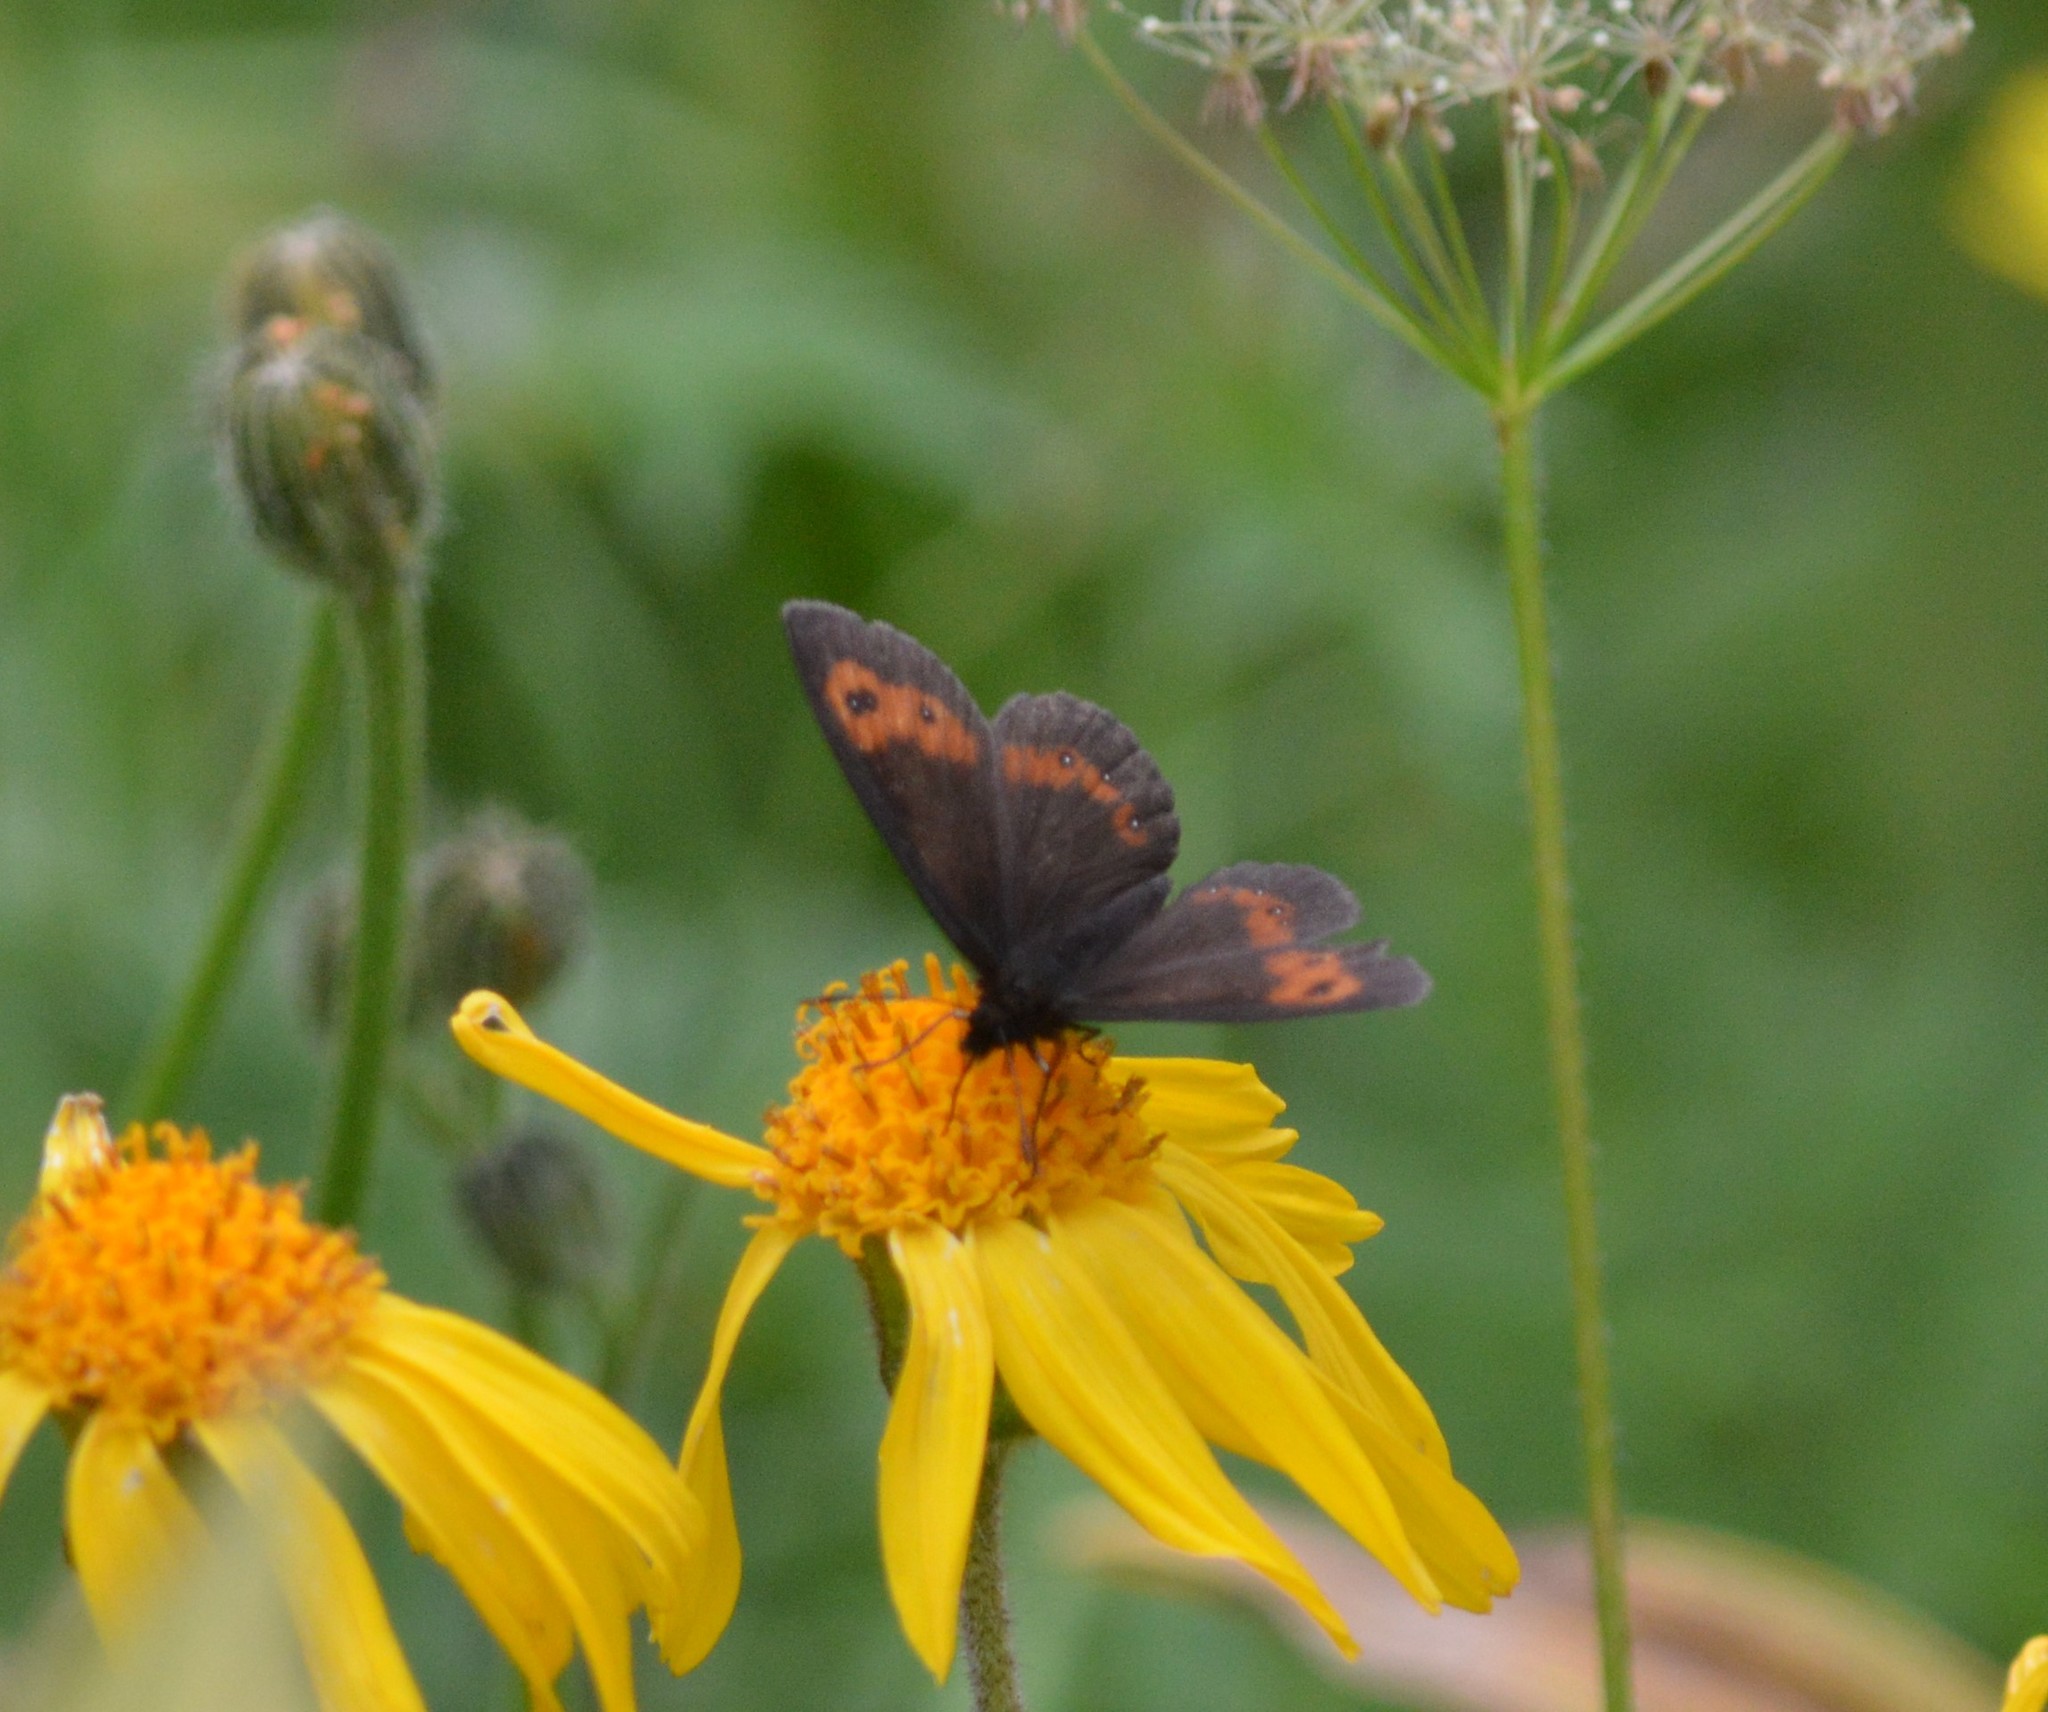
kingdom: Animalia
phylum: Arthropoda
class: Insecta
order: Lepidoptera
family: Nymphalidae
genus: Erebia
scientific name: Erebia euryale
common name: Large ringlet
